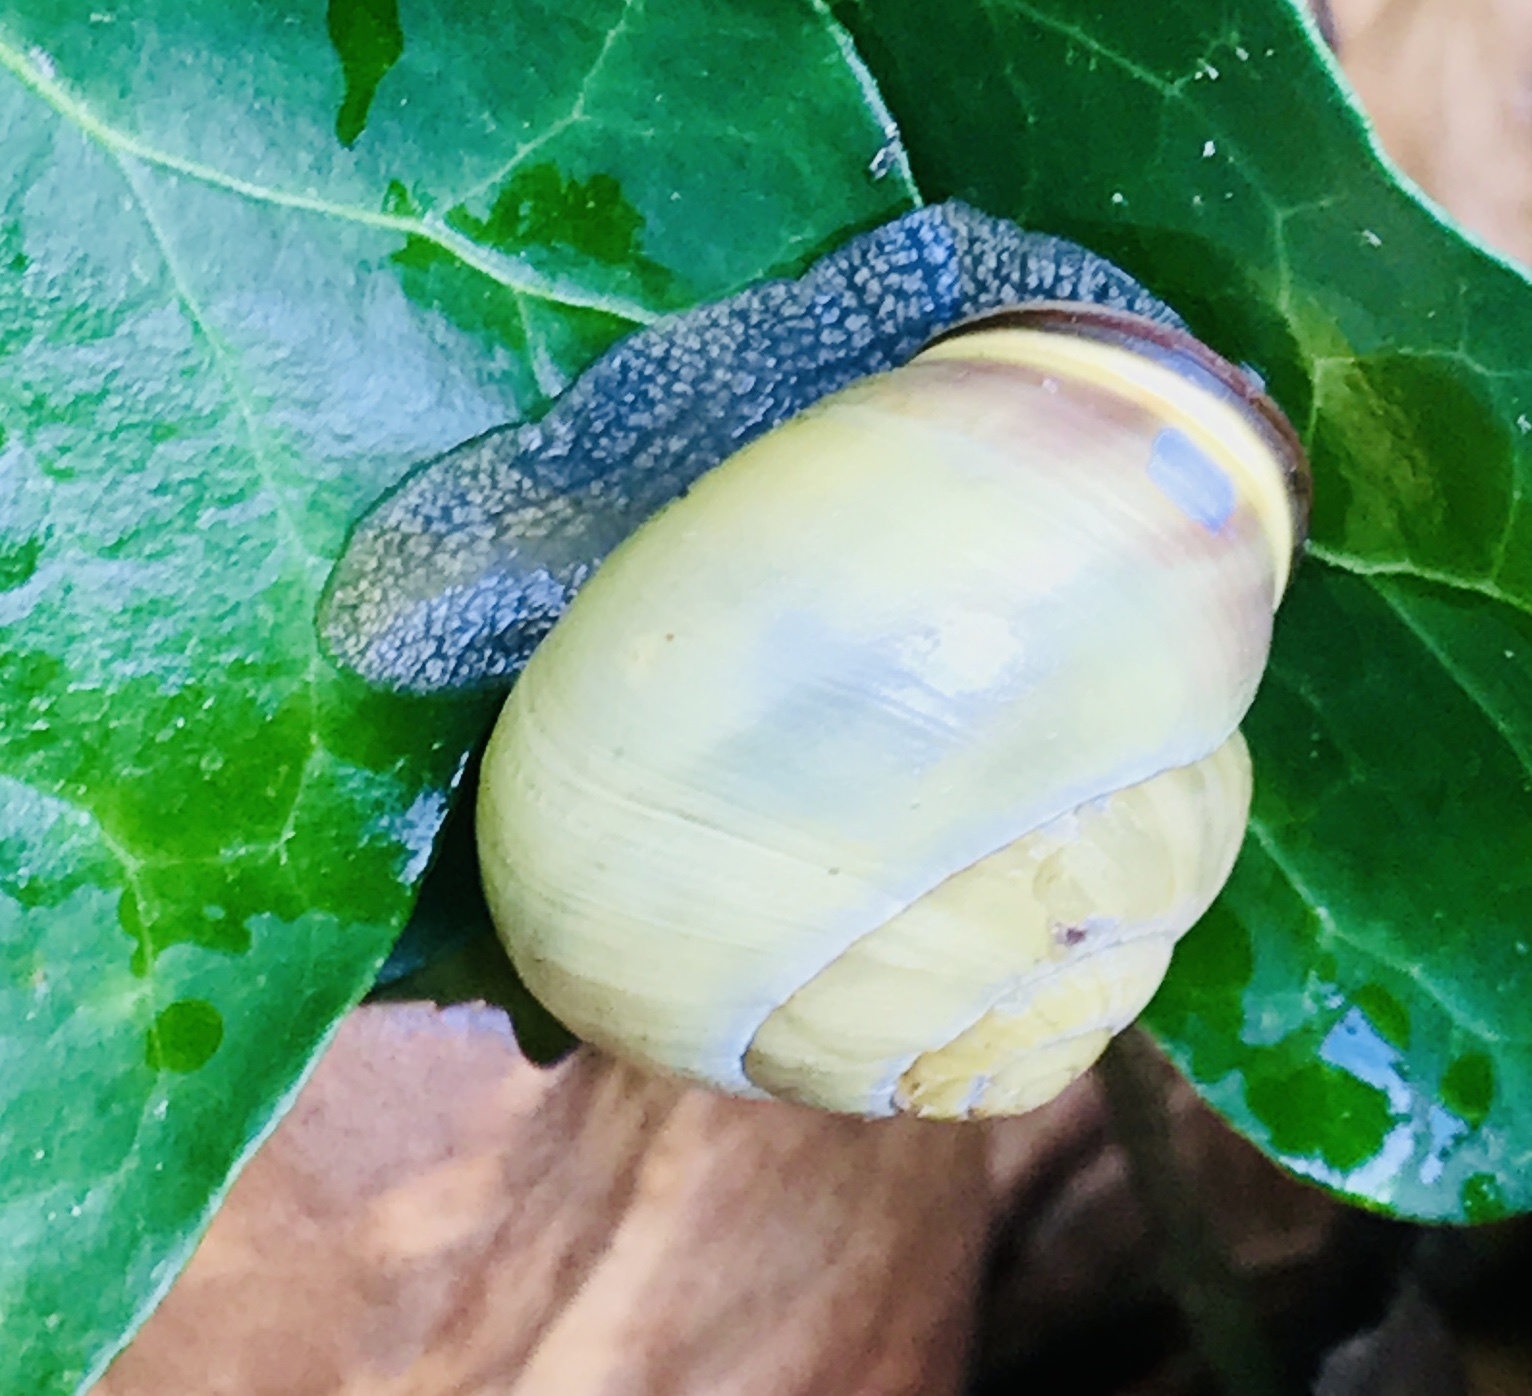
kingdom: Animalia
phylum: Mollusca
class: Gastropoda
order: Stylommatophora
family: Helicidae
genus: Cepaea
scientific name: Cepaea nemoralis
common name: Grovesnail
